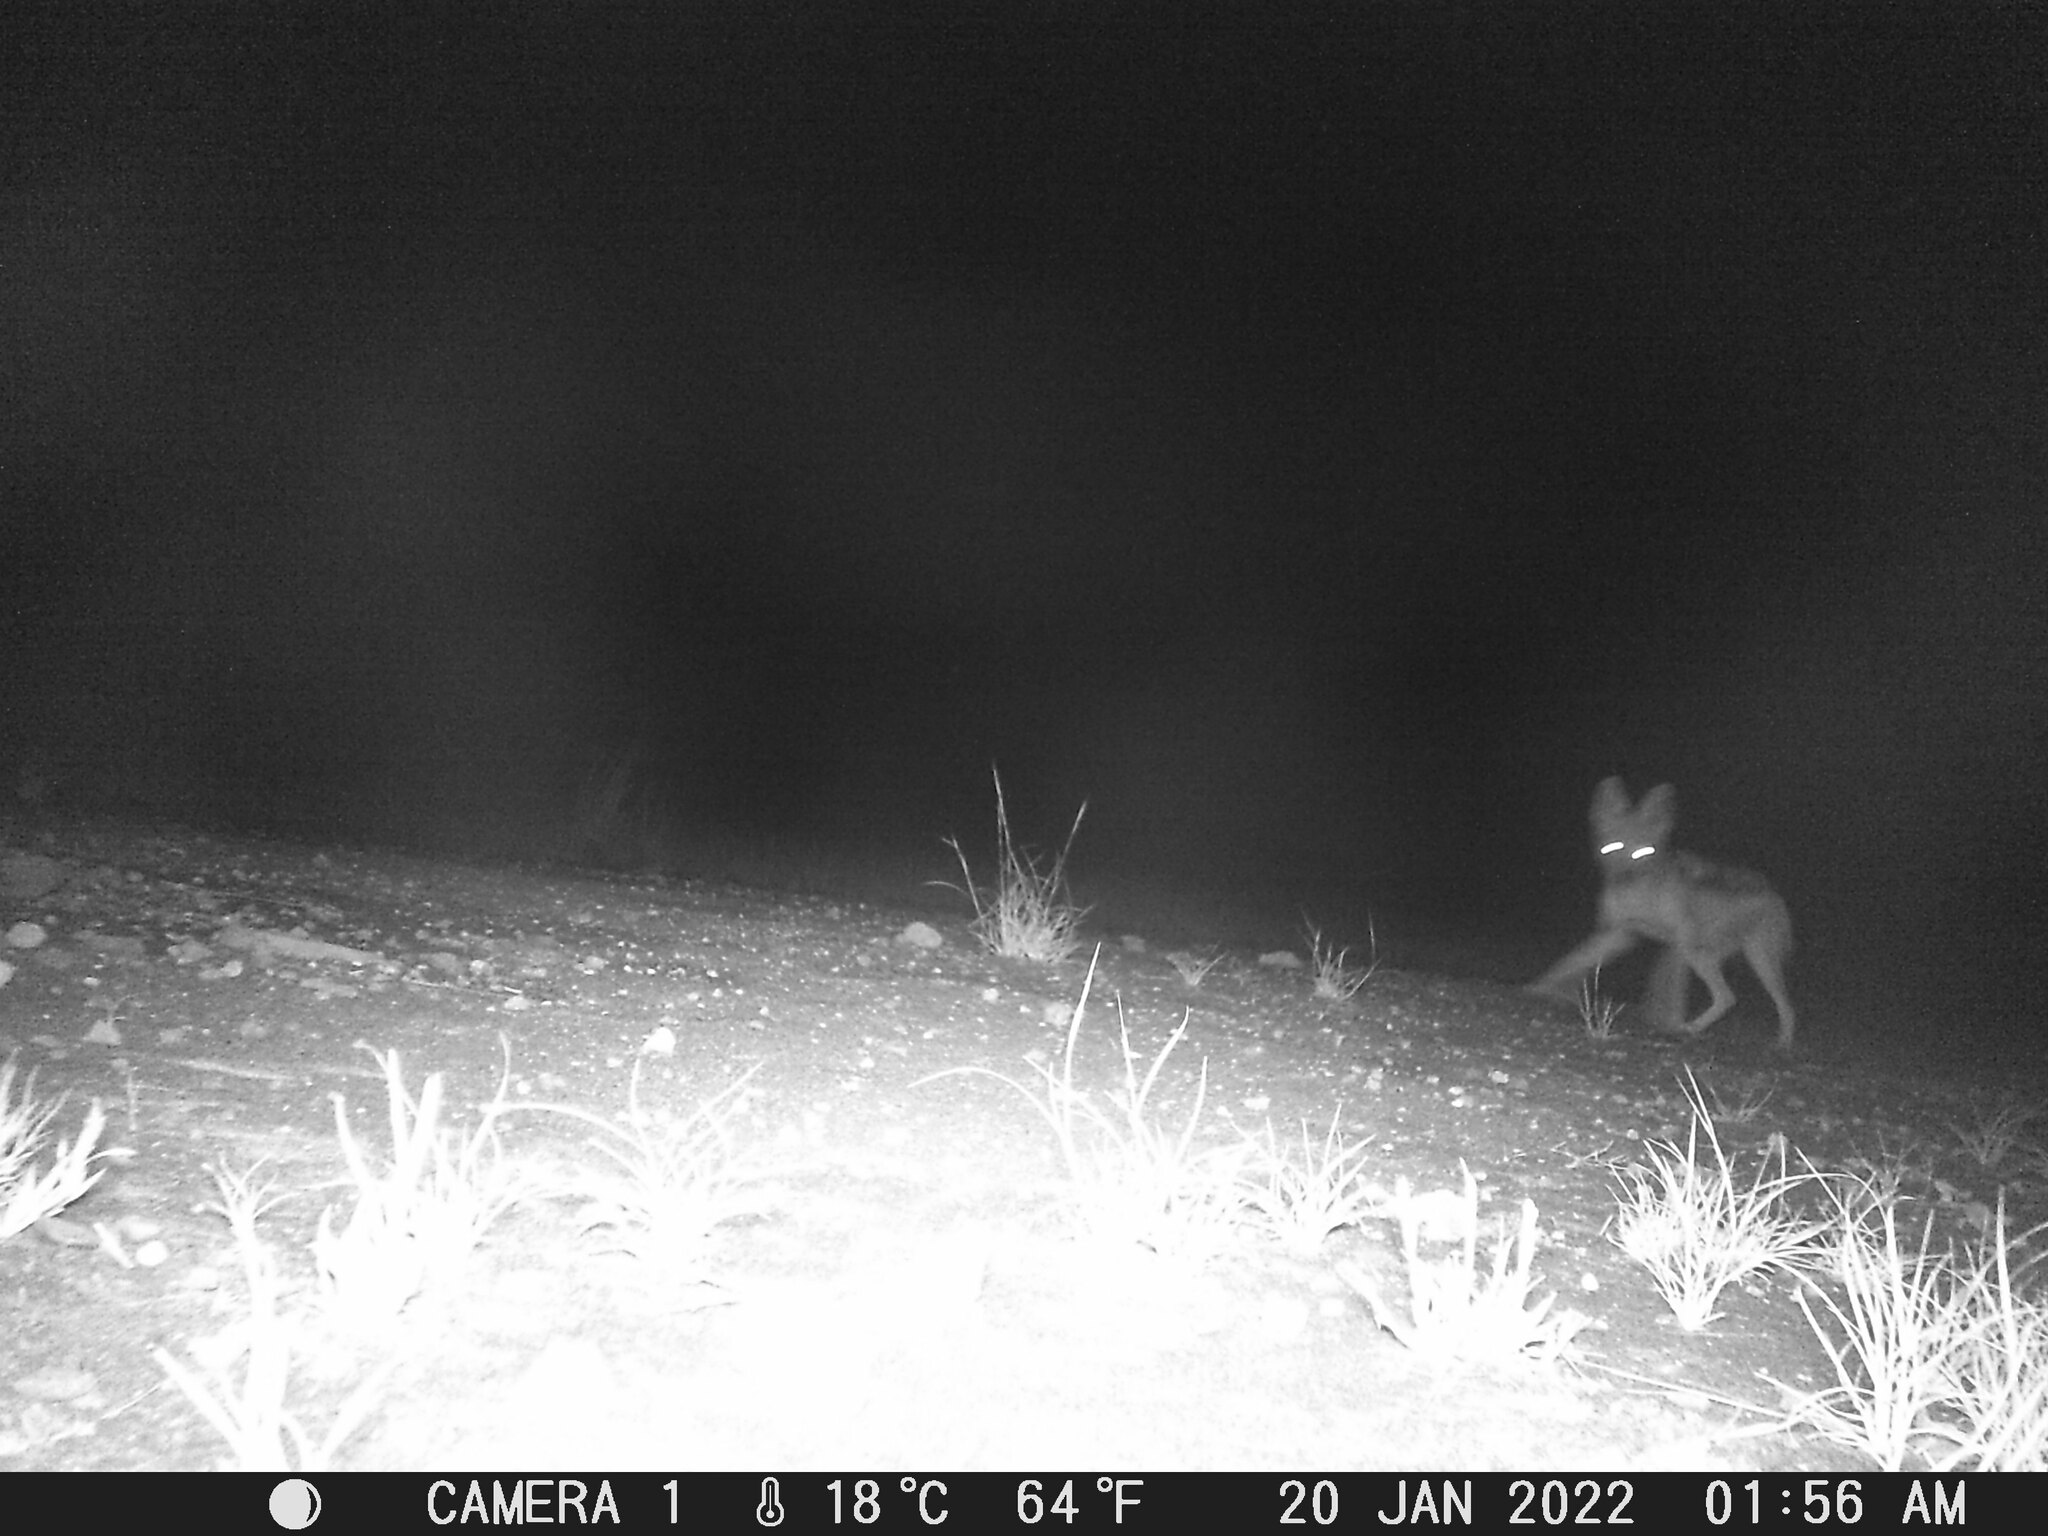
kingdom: Animalia
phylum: Chordata
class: Mammalia
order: Carnivora
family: Canidae
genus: Lupulella
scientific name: Lupulella
